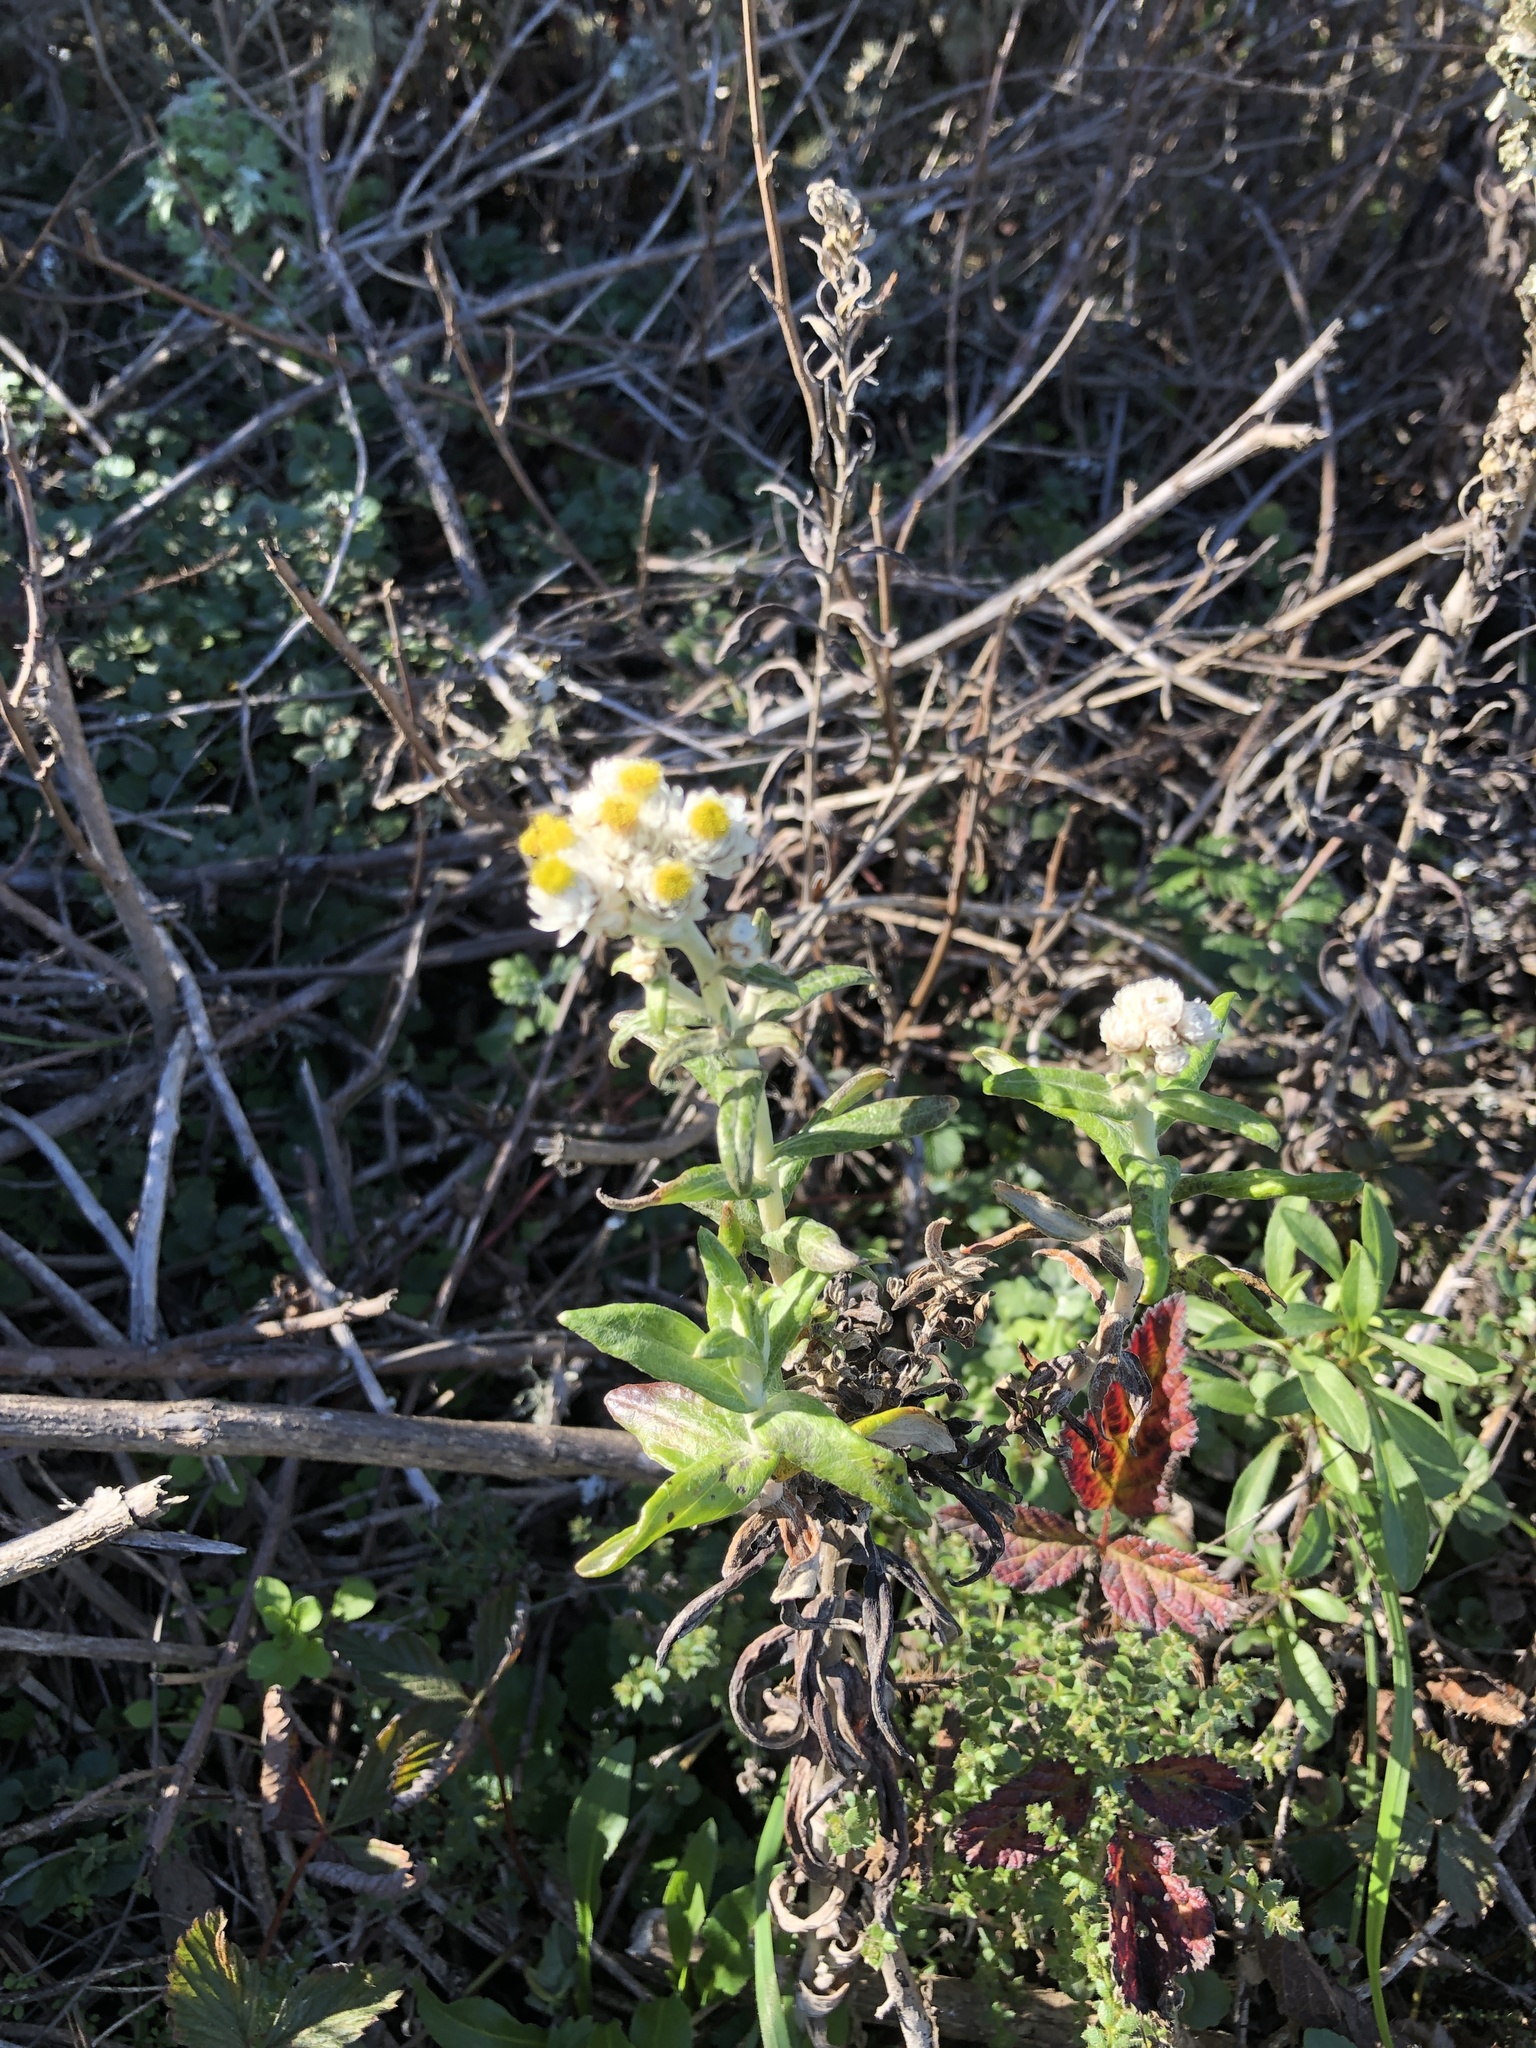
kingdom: Plantae
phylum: Tracheophyta
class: Magnoliopsida
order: Asterales
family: Asteraceae
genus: Anaphalis
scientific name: Anaphalis margaritacea
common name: Pearly everlasting
